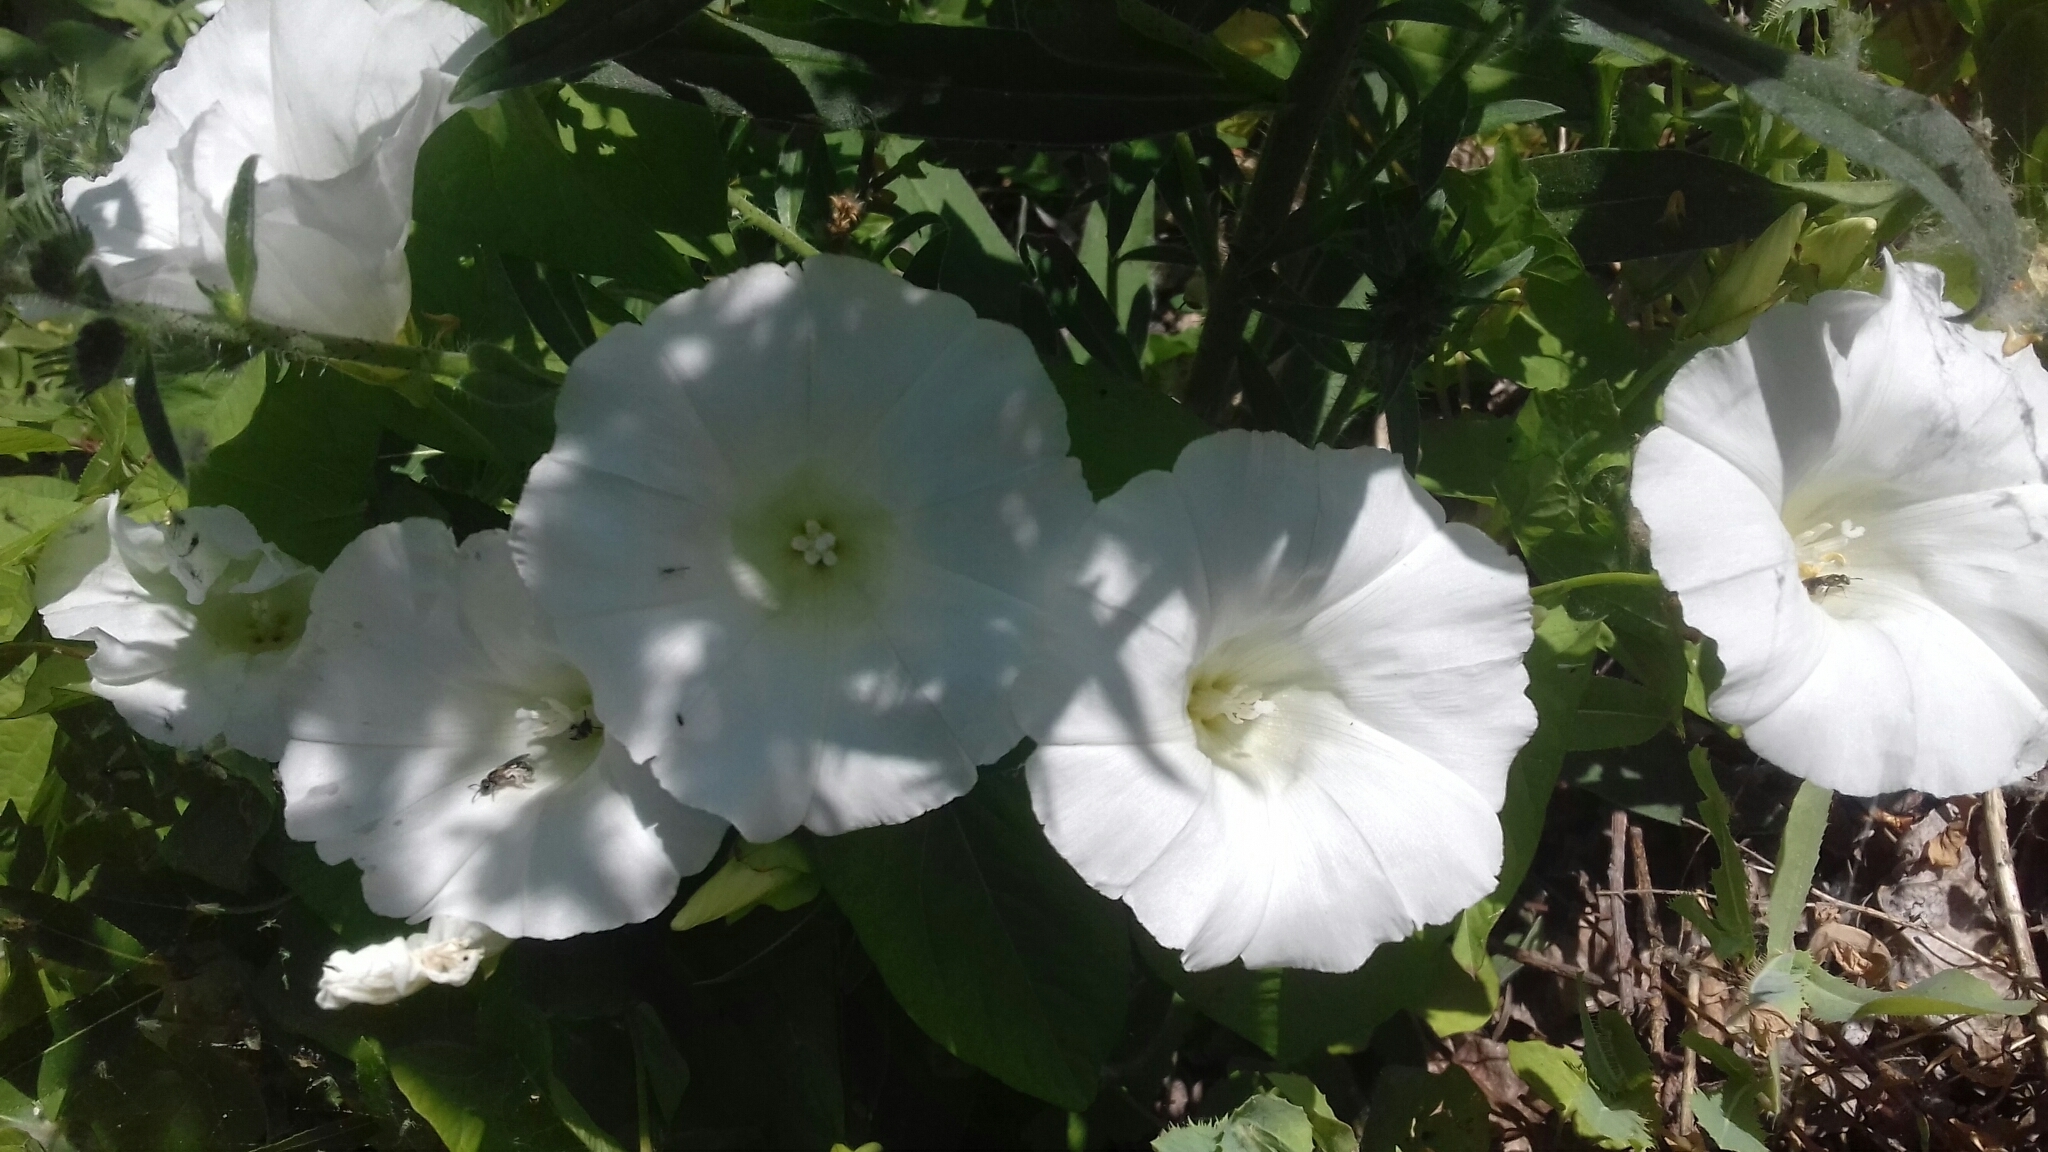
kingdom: Plantae
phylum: Tracheophyta
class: Magnoliopsida
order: Solanales
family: Convolvulaceae
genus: Calystegia
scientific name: Calystegia sepium
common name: Hedge bindweed
